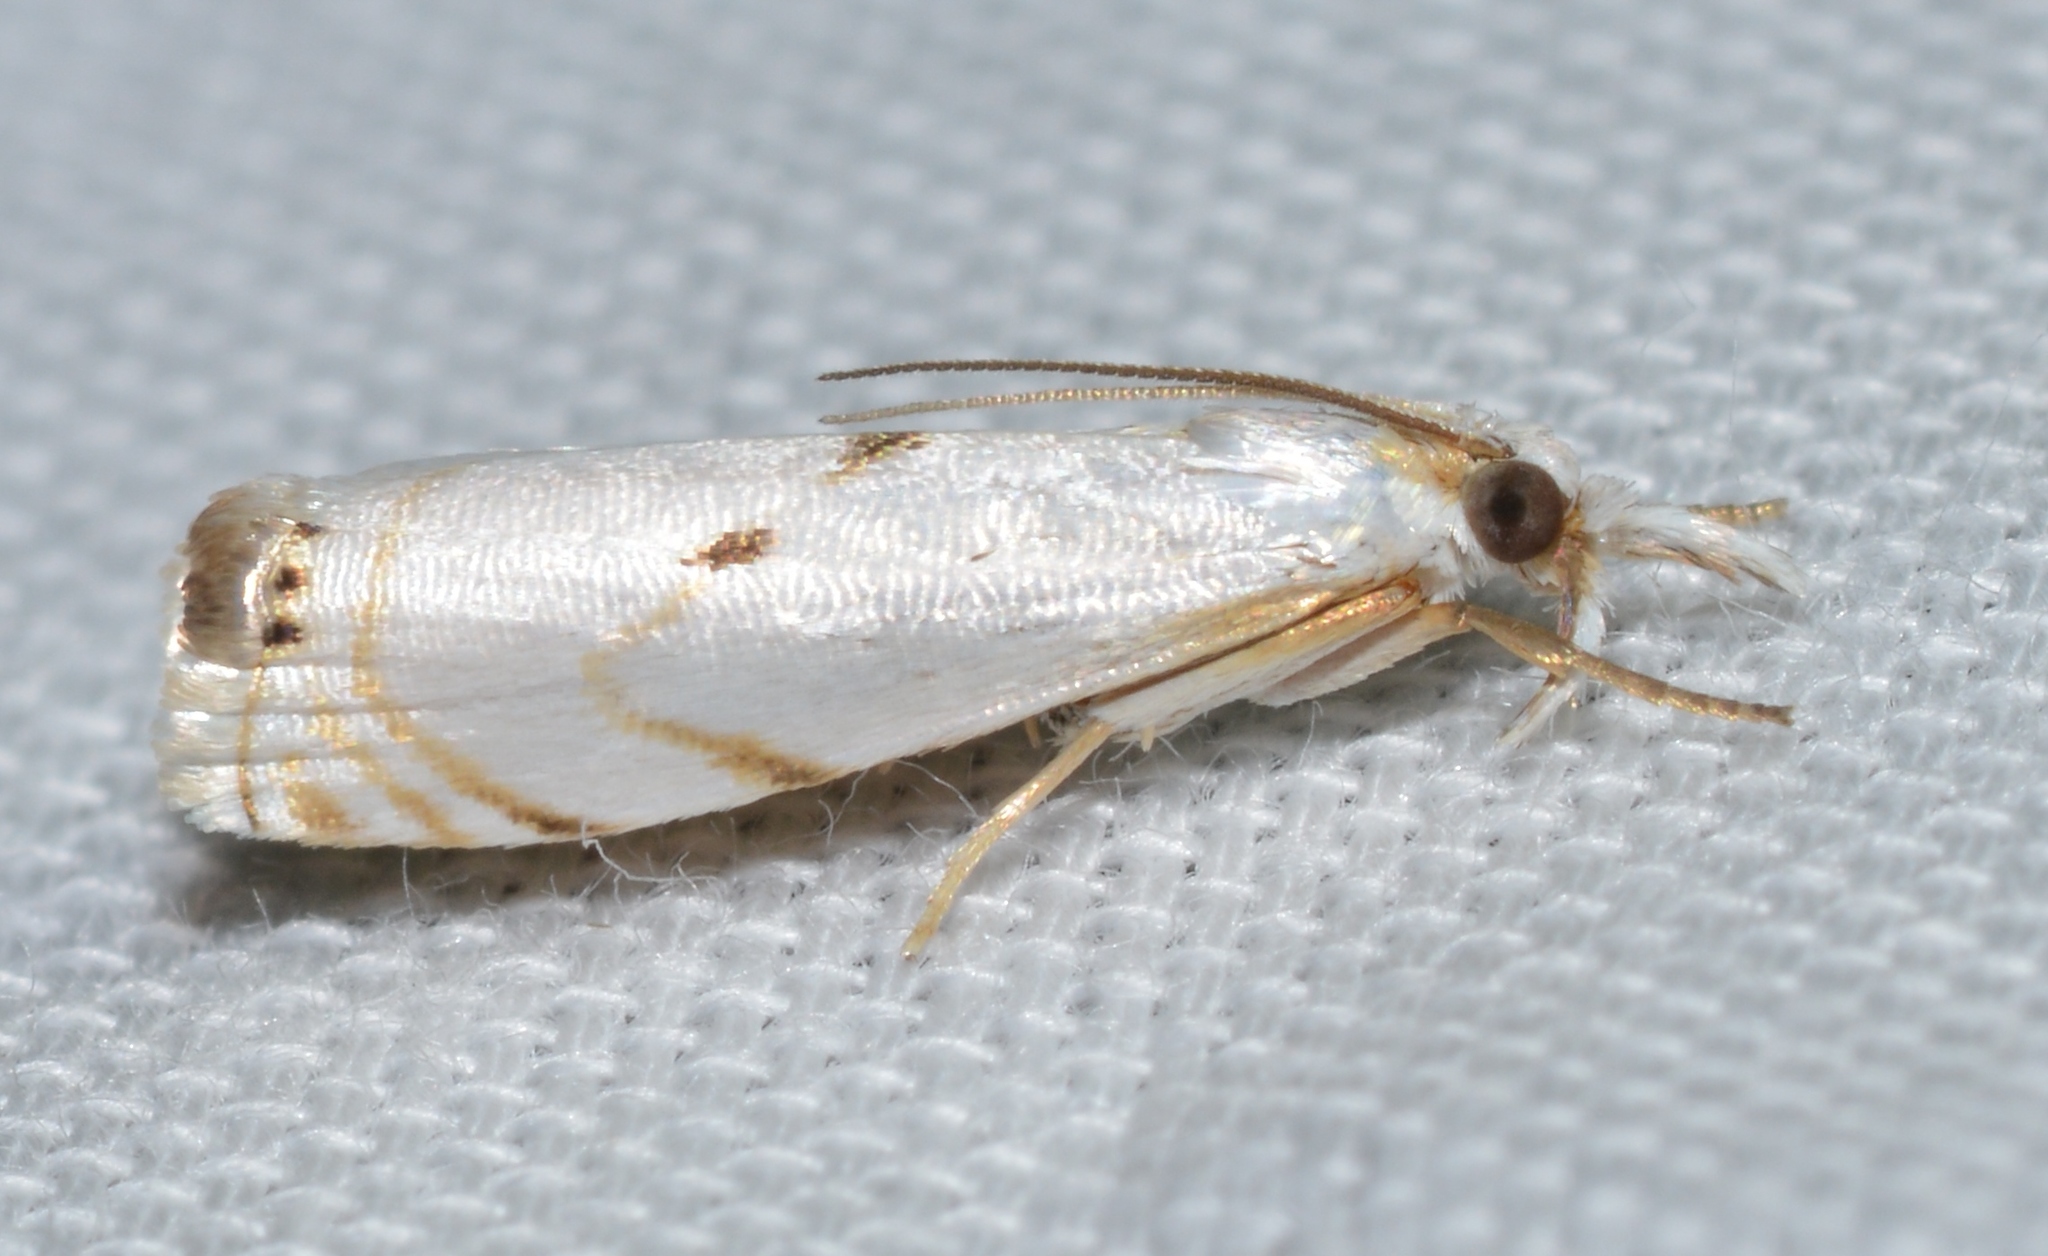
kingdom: Animalia
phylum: Arthropoda
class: Insecta
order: Lepidoptera
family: Crambidae
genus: Microcrambus
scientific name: Microcrambus biguttellus
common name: Gold-stripe grass-veneer moth
